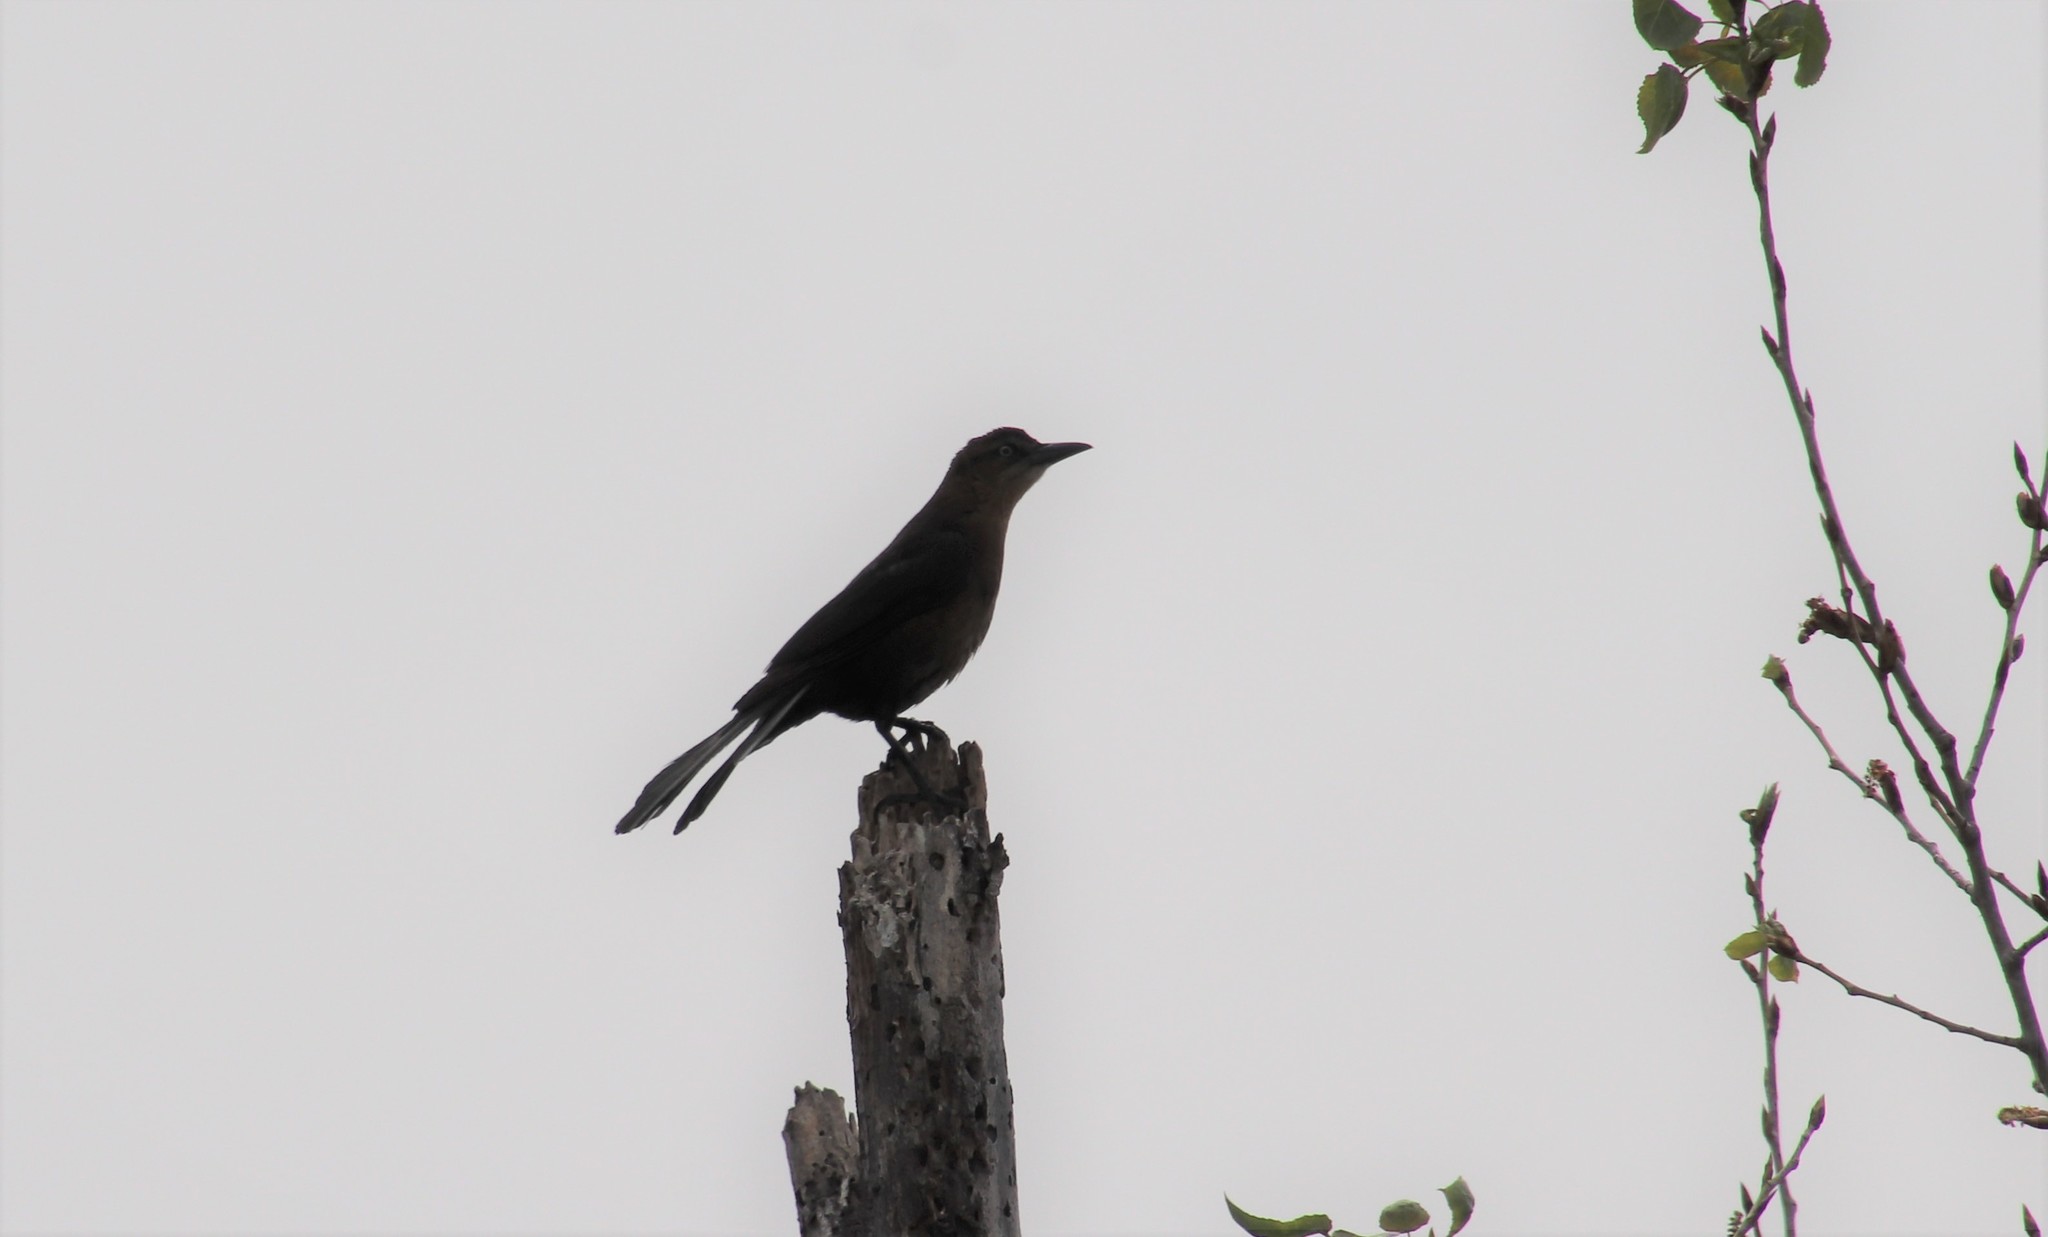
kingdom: Animalia
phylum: Chordata
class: Aves
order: Passeriformes
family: Icteridae
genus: Quiscalus
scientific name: Quiscalus mexicanus
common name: Great-tailed grackle
